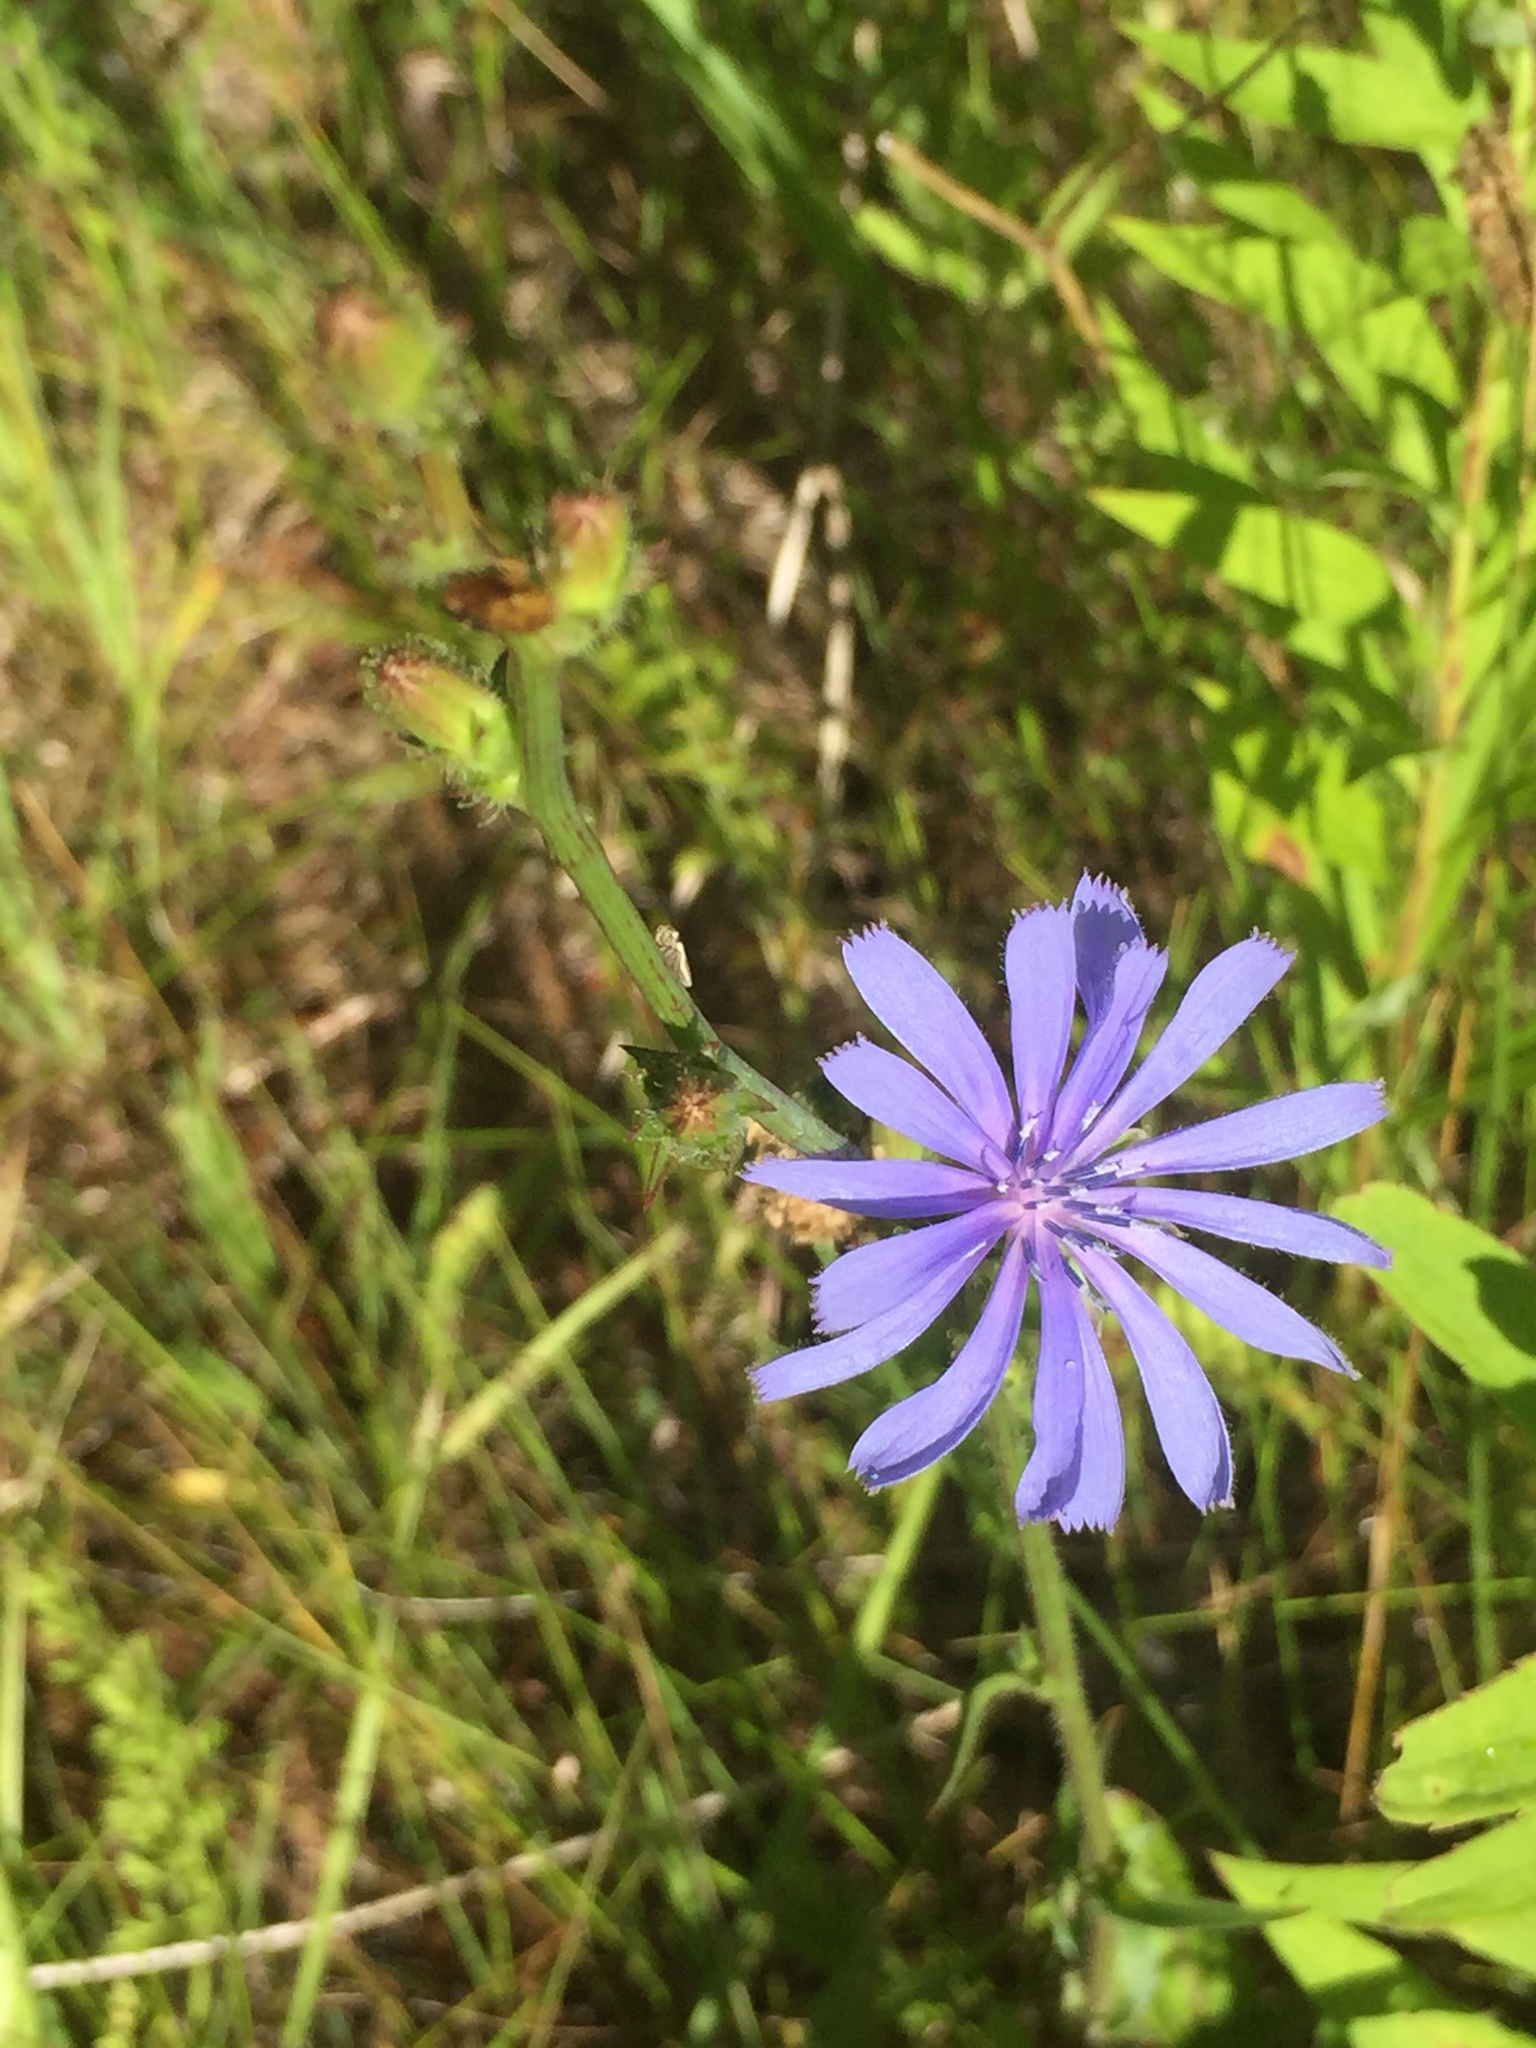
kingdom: Plantae
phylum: Tracheophyta
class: Magnoliopsida
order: Asterales
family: Asteraceae
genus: Cichorium
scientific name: Cichorium intybus
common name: Chicory
